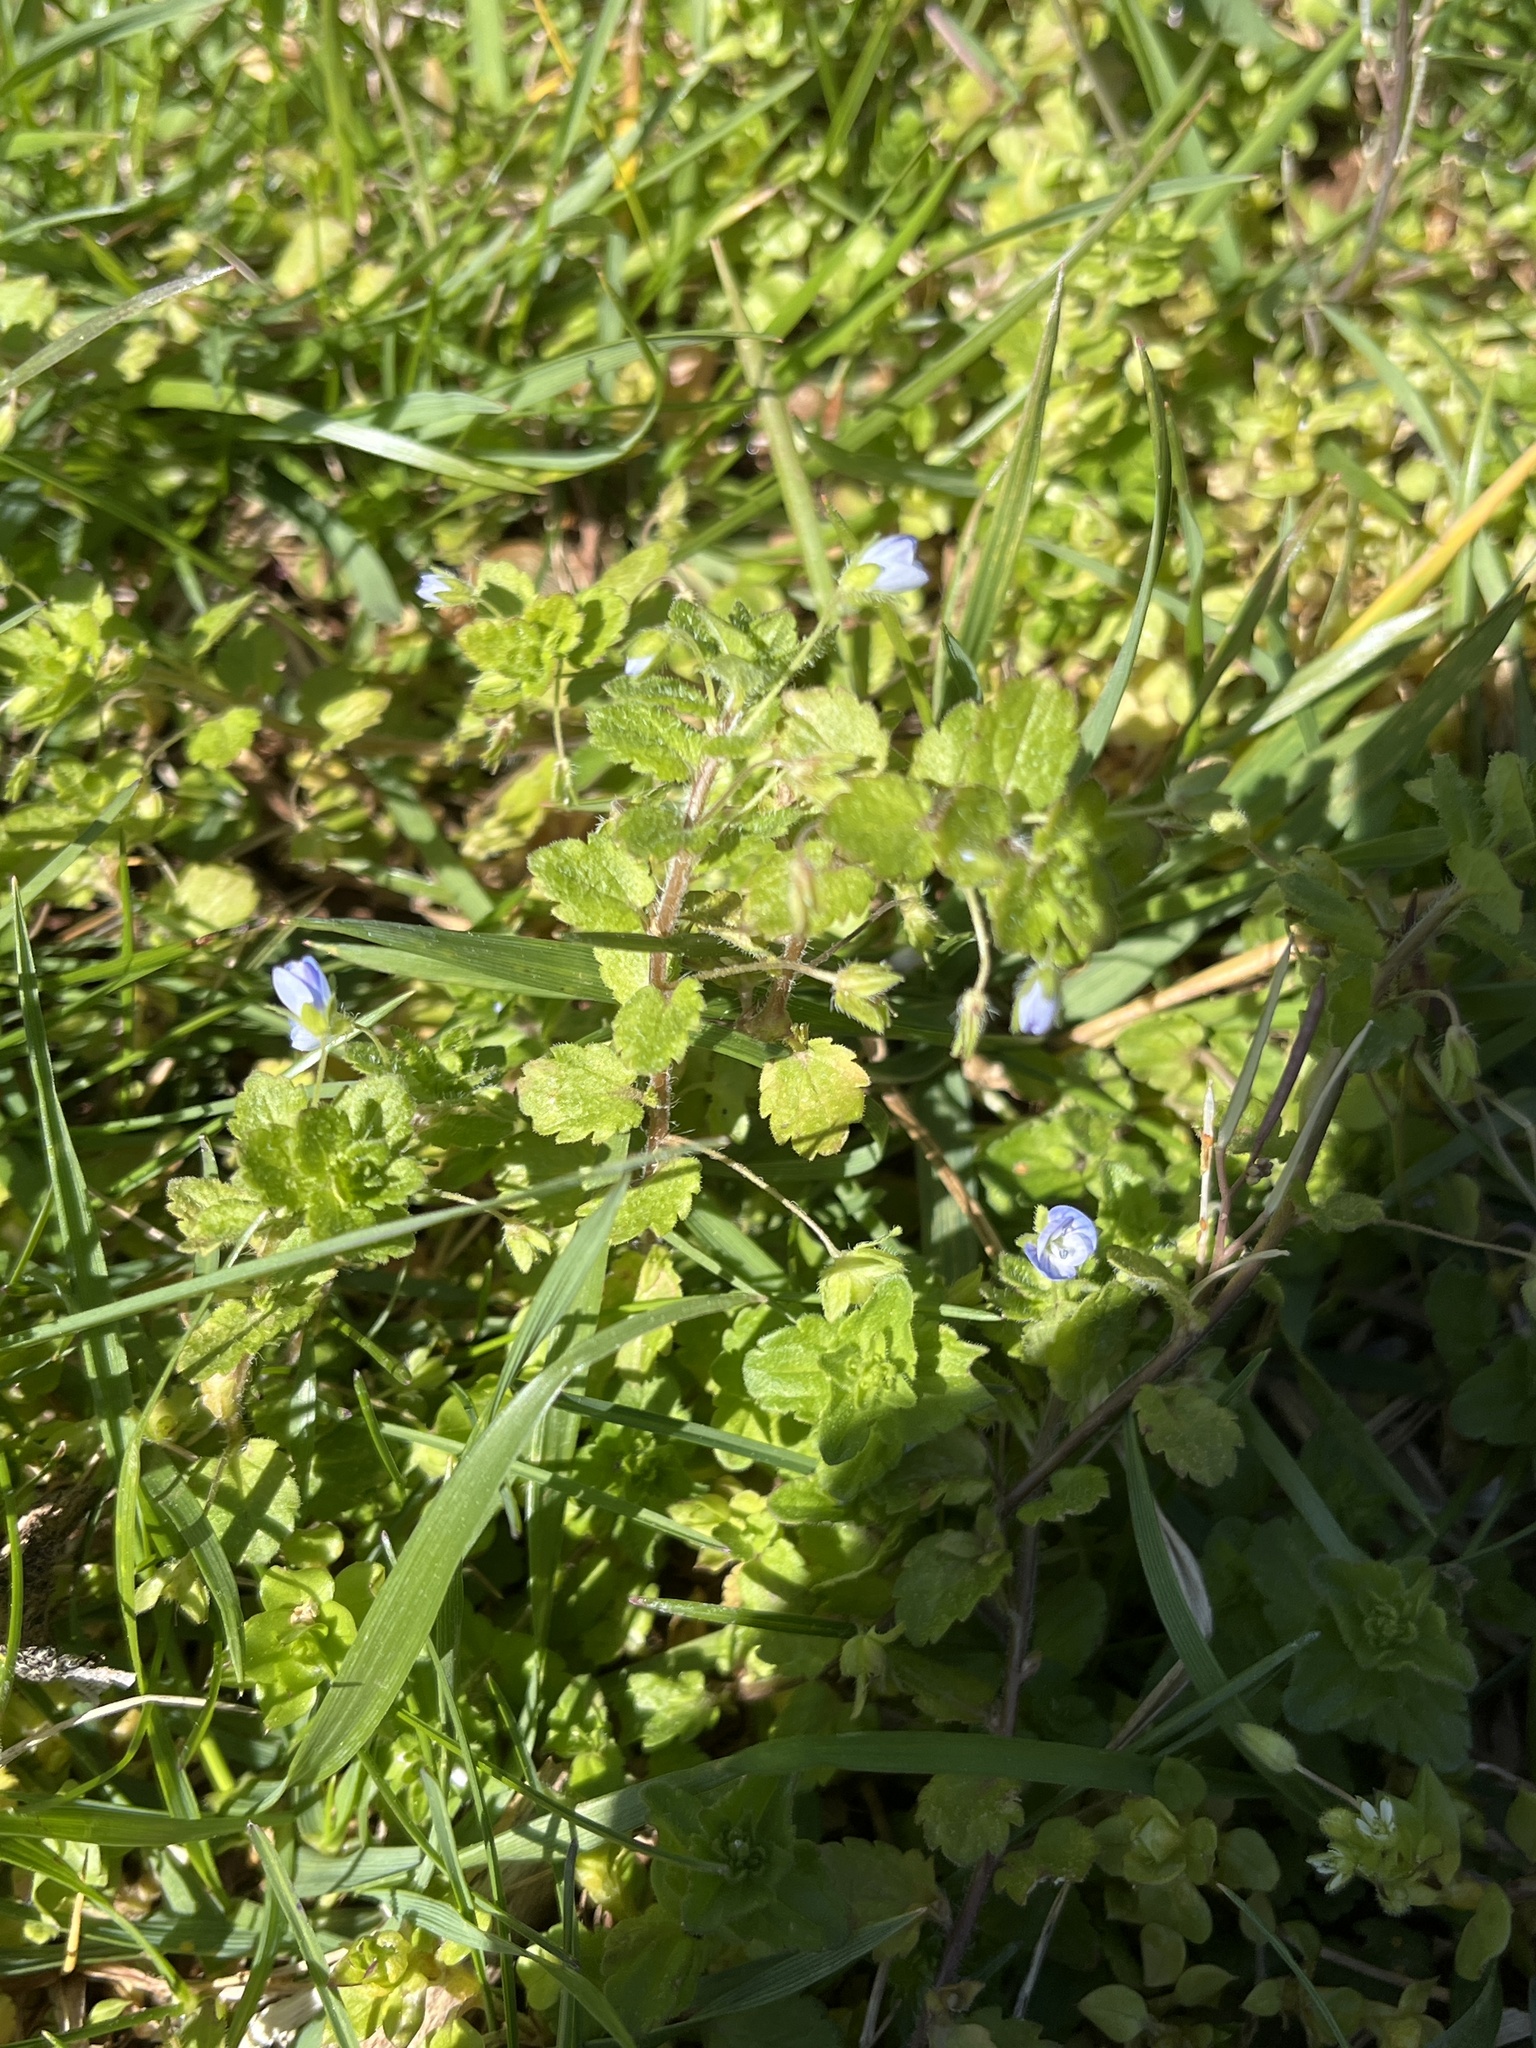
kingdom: Plantae
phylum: Tracheophyta
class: Magnoliopsida
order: Lamiales
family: Plantaginaceae
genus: Veronica
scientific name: Veronica persica
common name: Common field-speedwell
